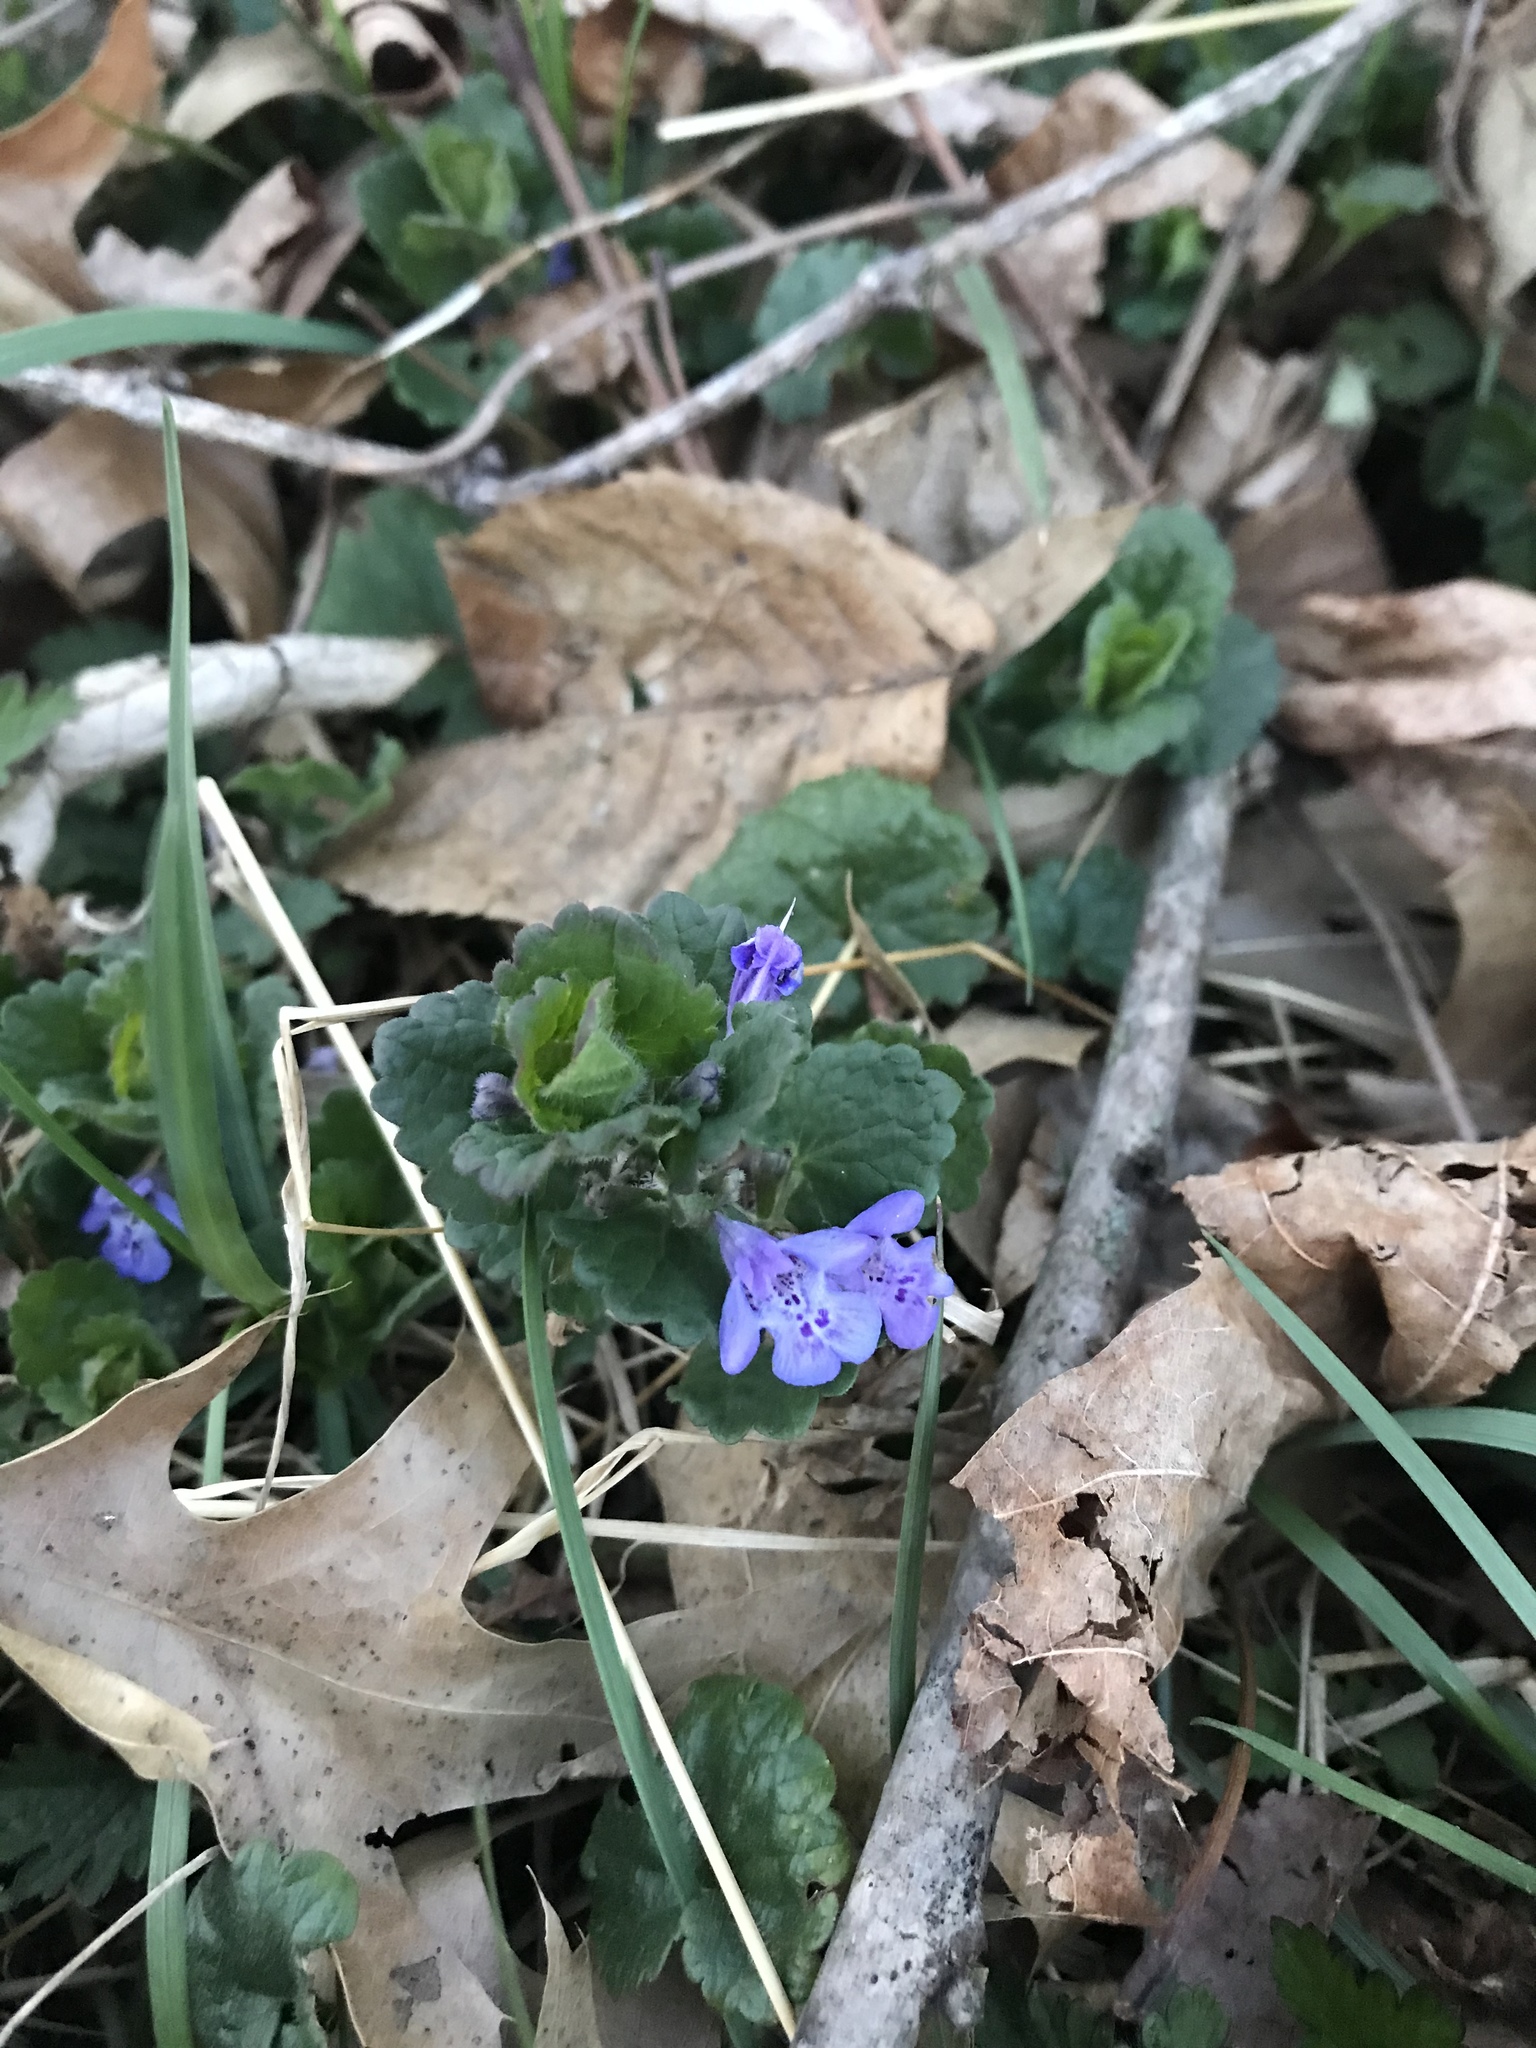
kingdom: Plantae
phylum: Tracheophyta
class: Magnoliopsida
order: Lamiales
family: Lamiaceae
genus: Glechoma
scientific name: Glechoma hederacea
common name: Ground ivy
